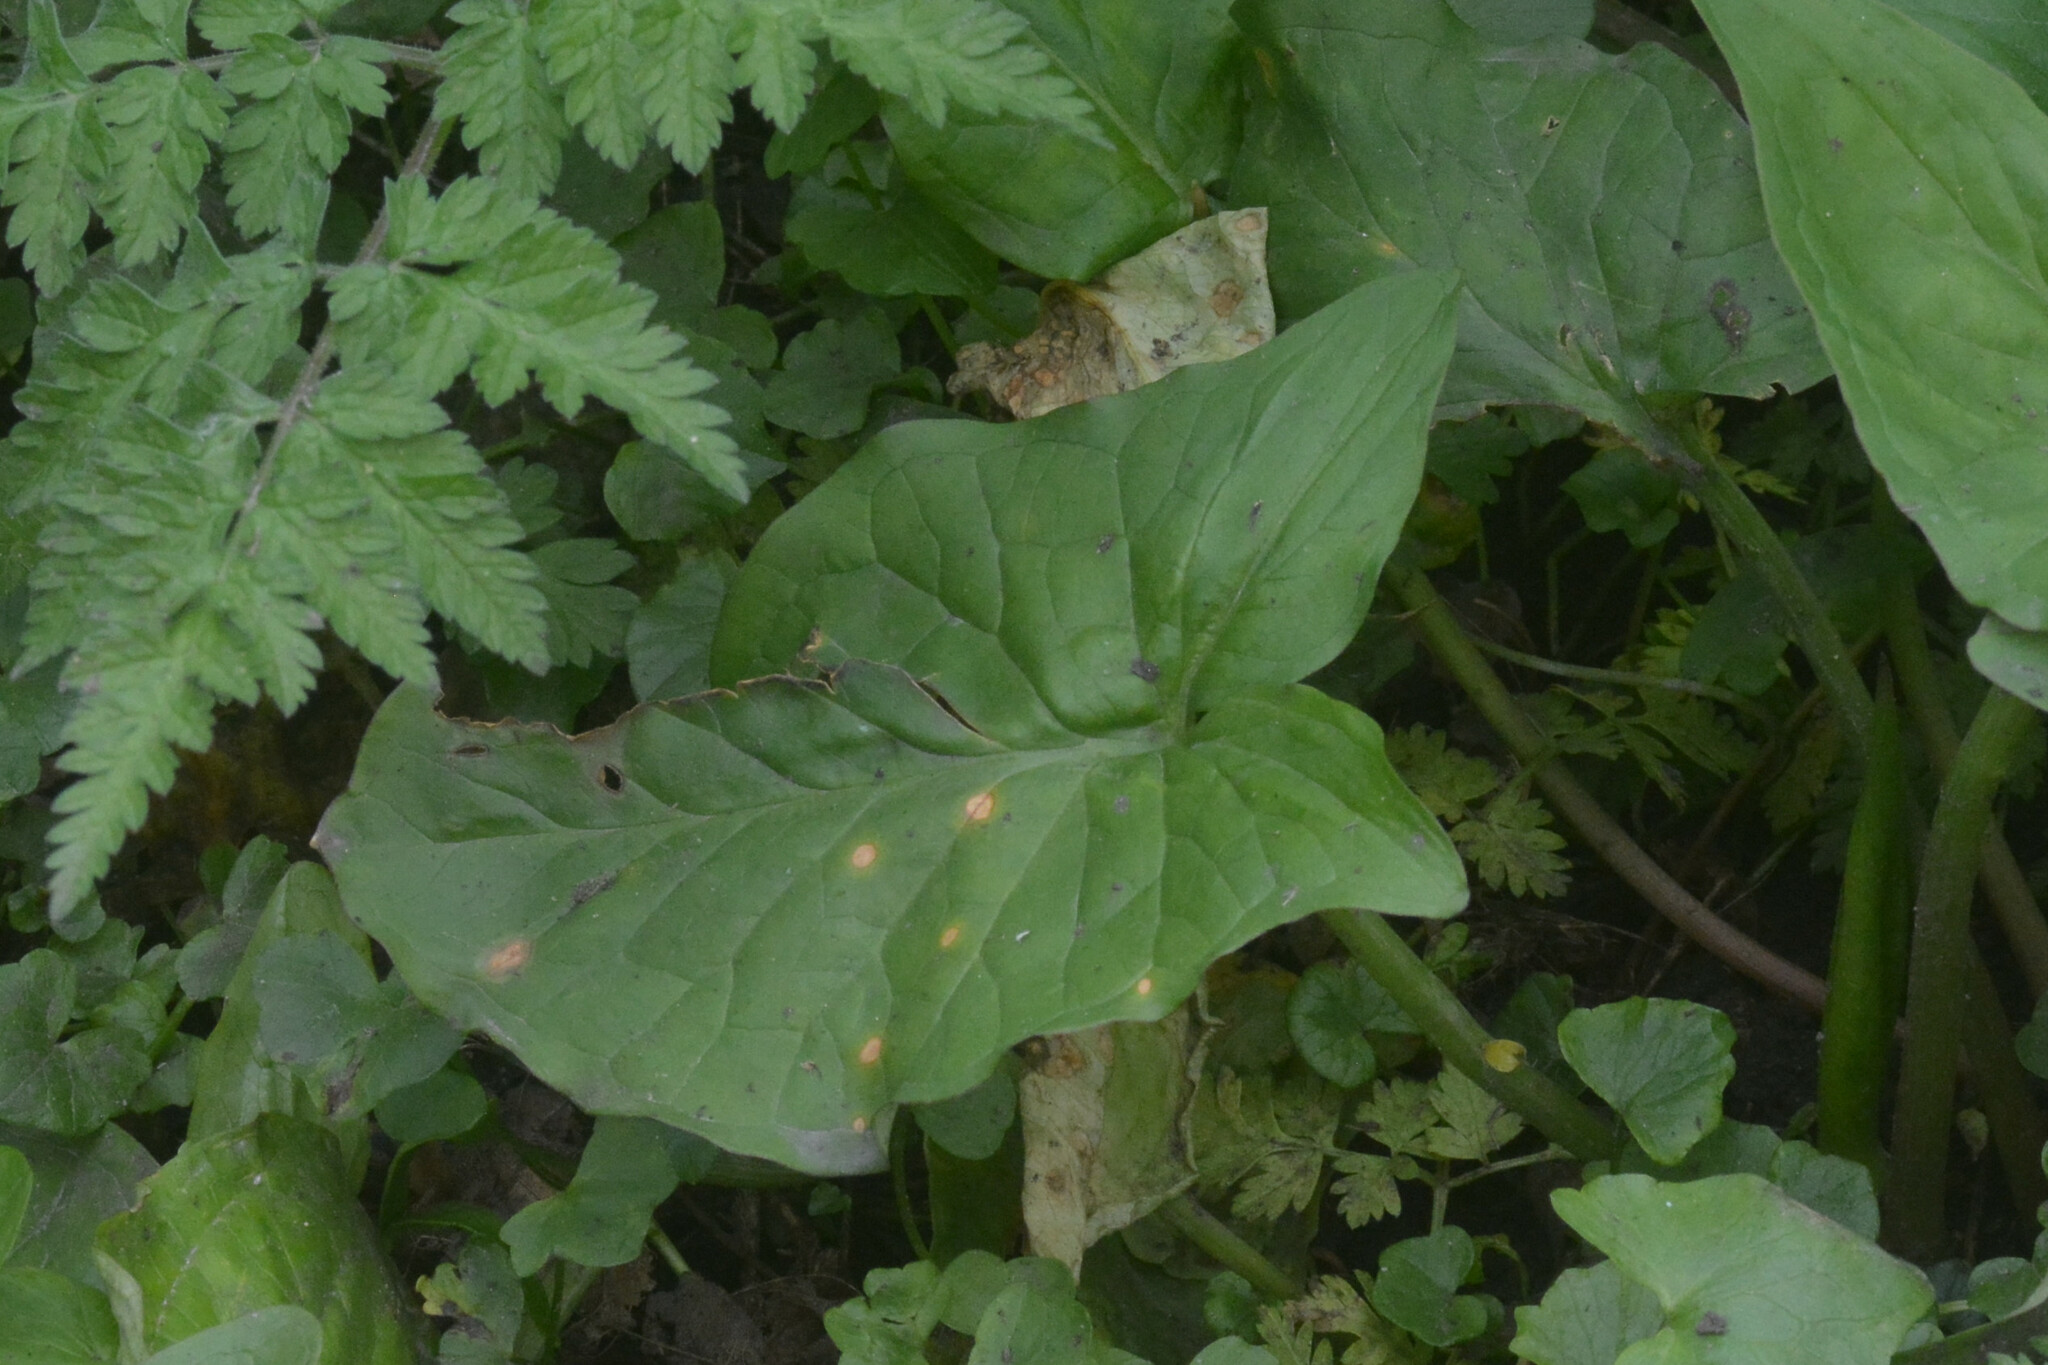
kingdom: Plantae
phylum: Tracheophyta
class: Liliopsida
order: Alismatales
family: Araceae
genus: Arum
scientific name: Arum maculatum
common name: Lords-and-ladies
